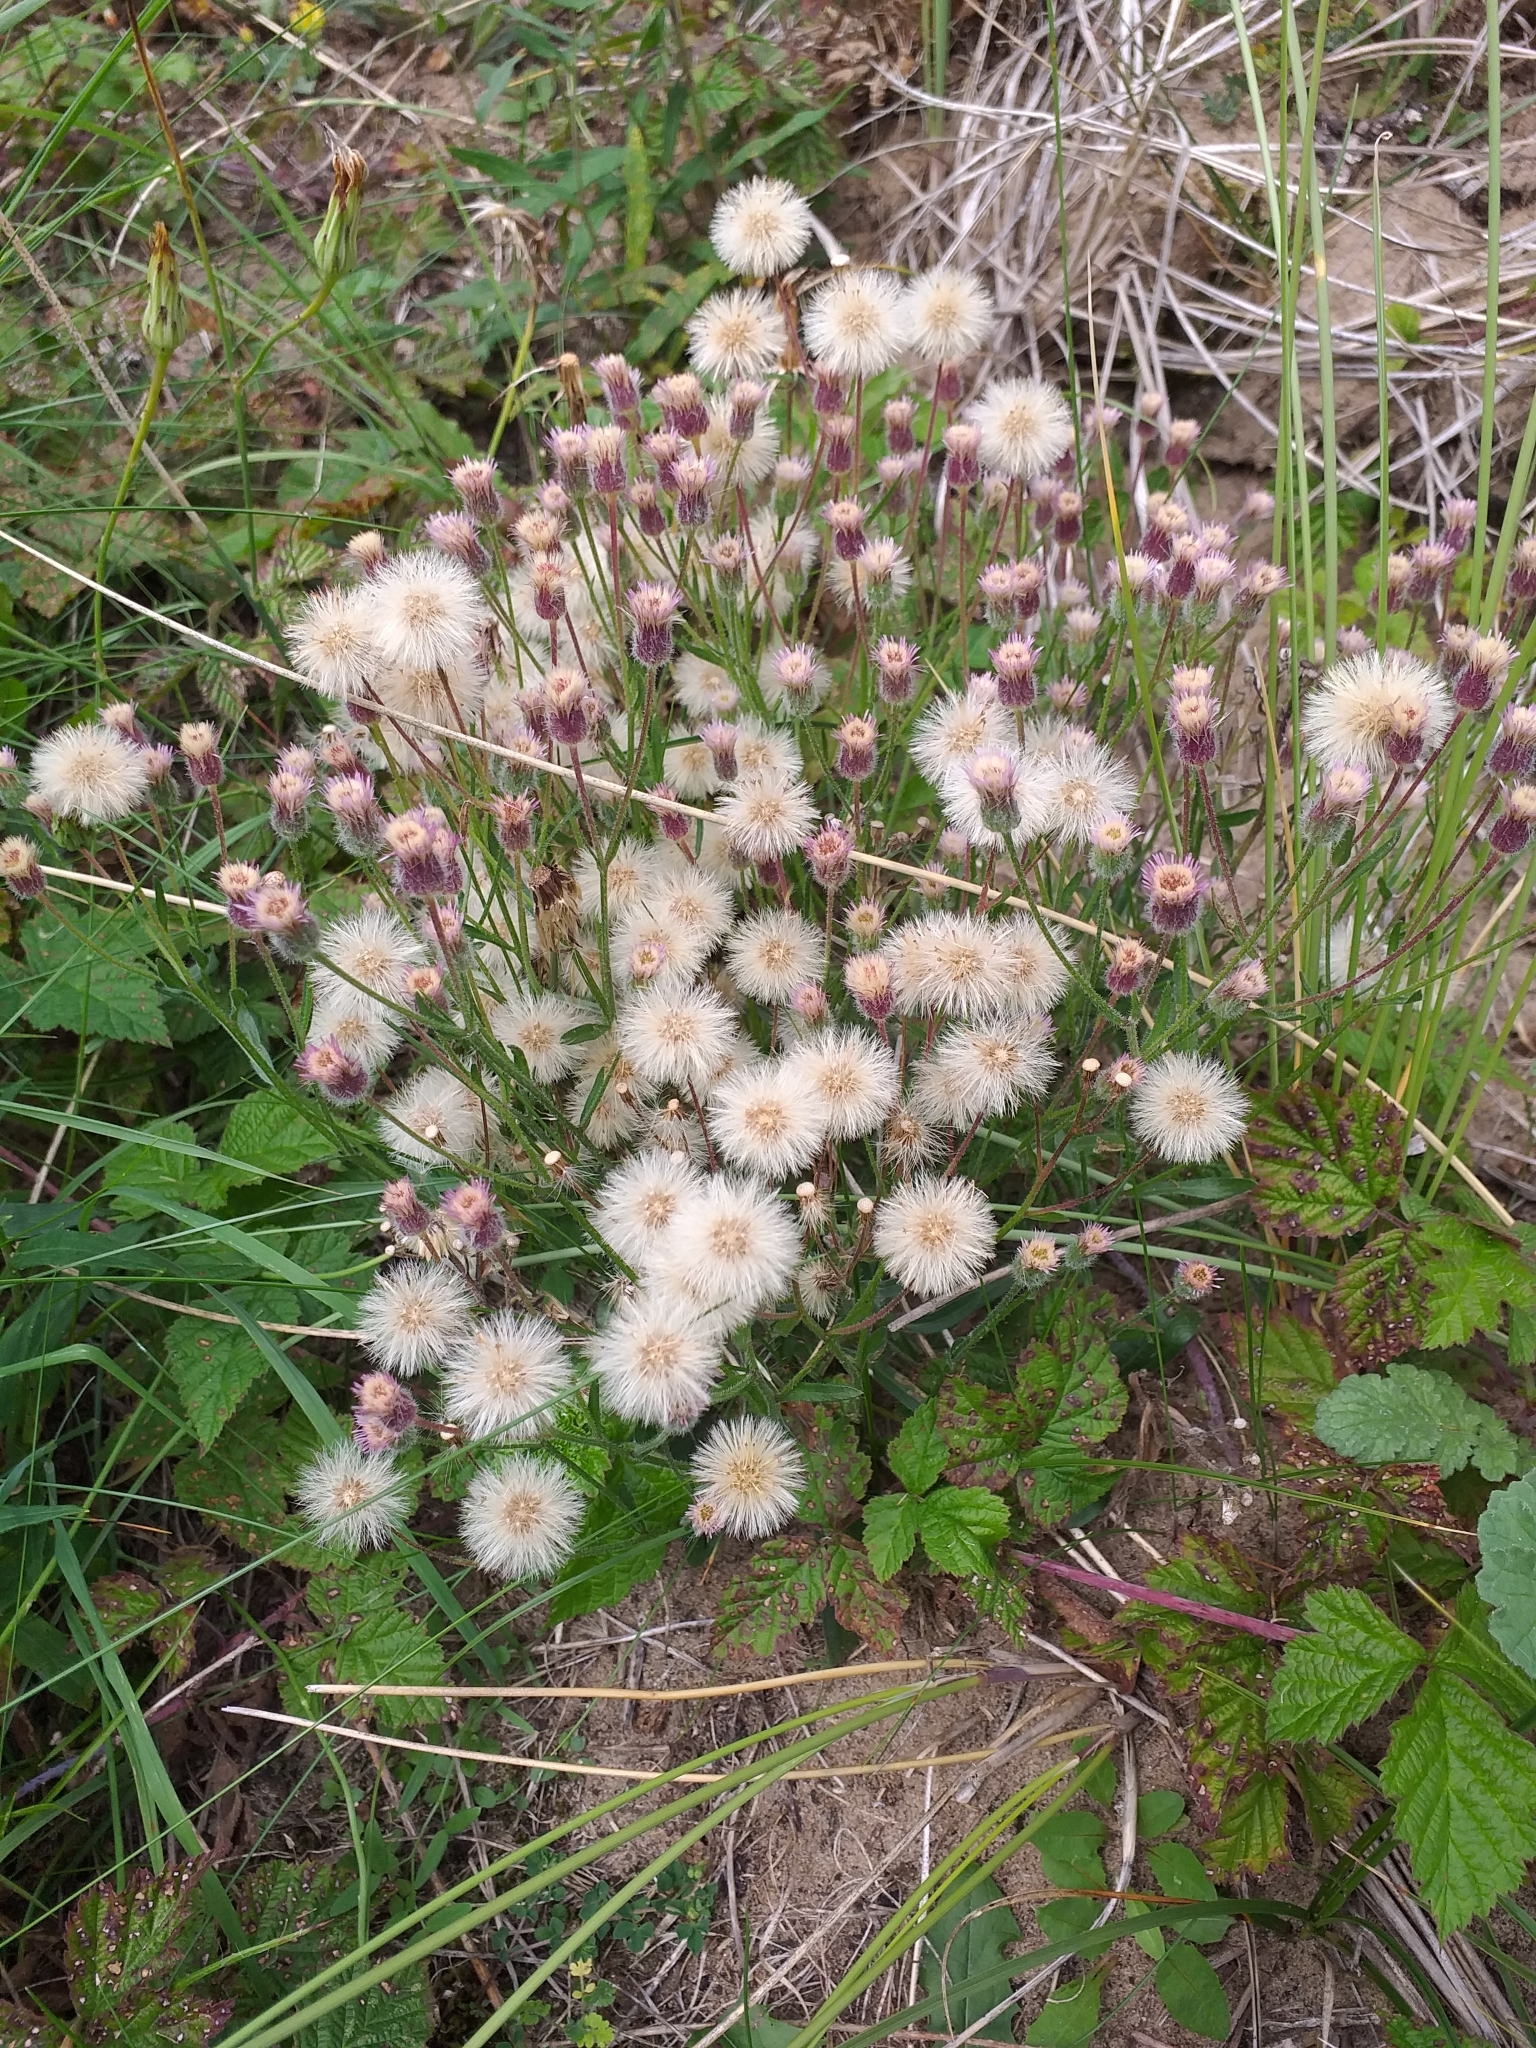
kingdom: Plantae
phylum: Tracheophyta
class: Magnoliopsida
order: Asterales
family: Asteraceae
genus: Erigeron
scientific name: Erigeron acris
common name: Blue fleabane
